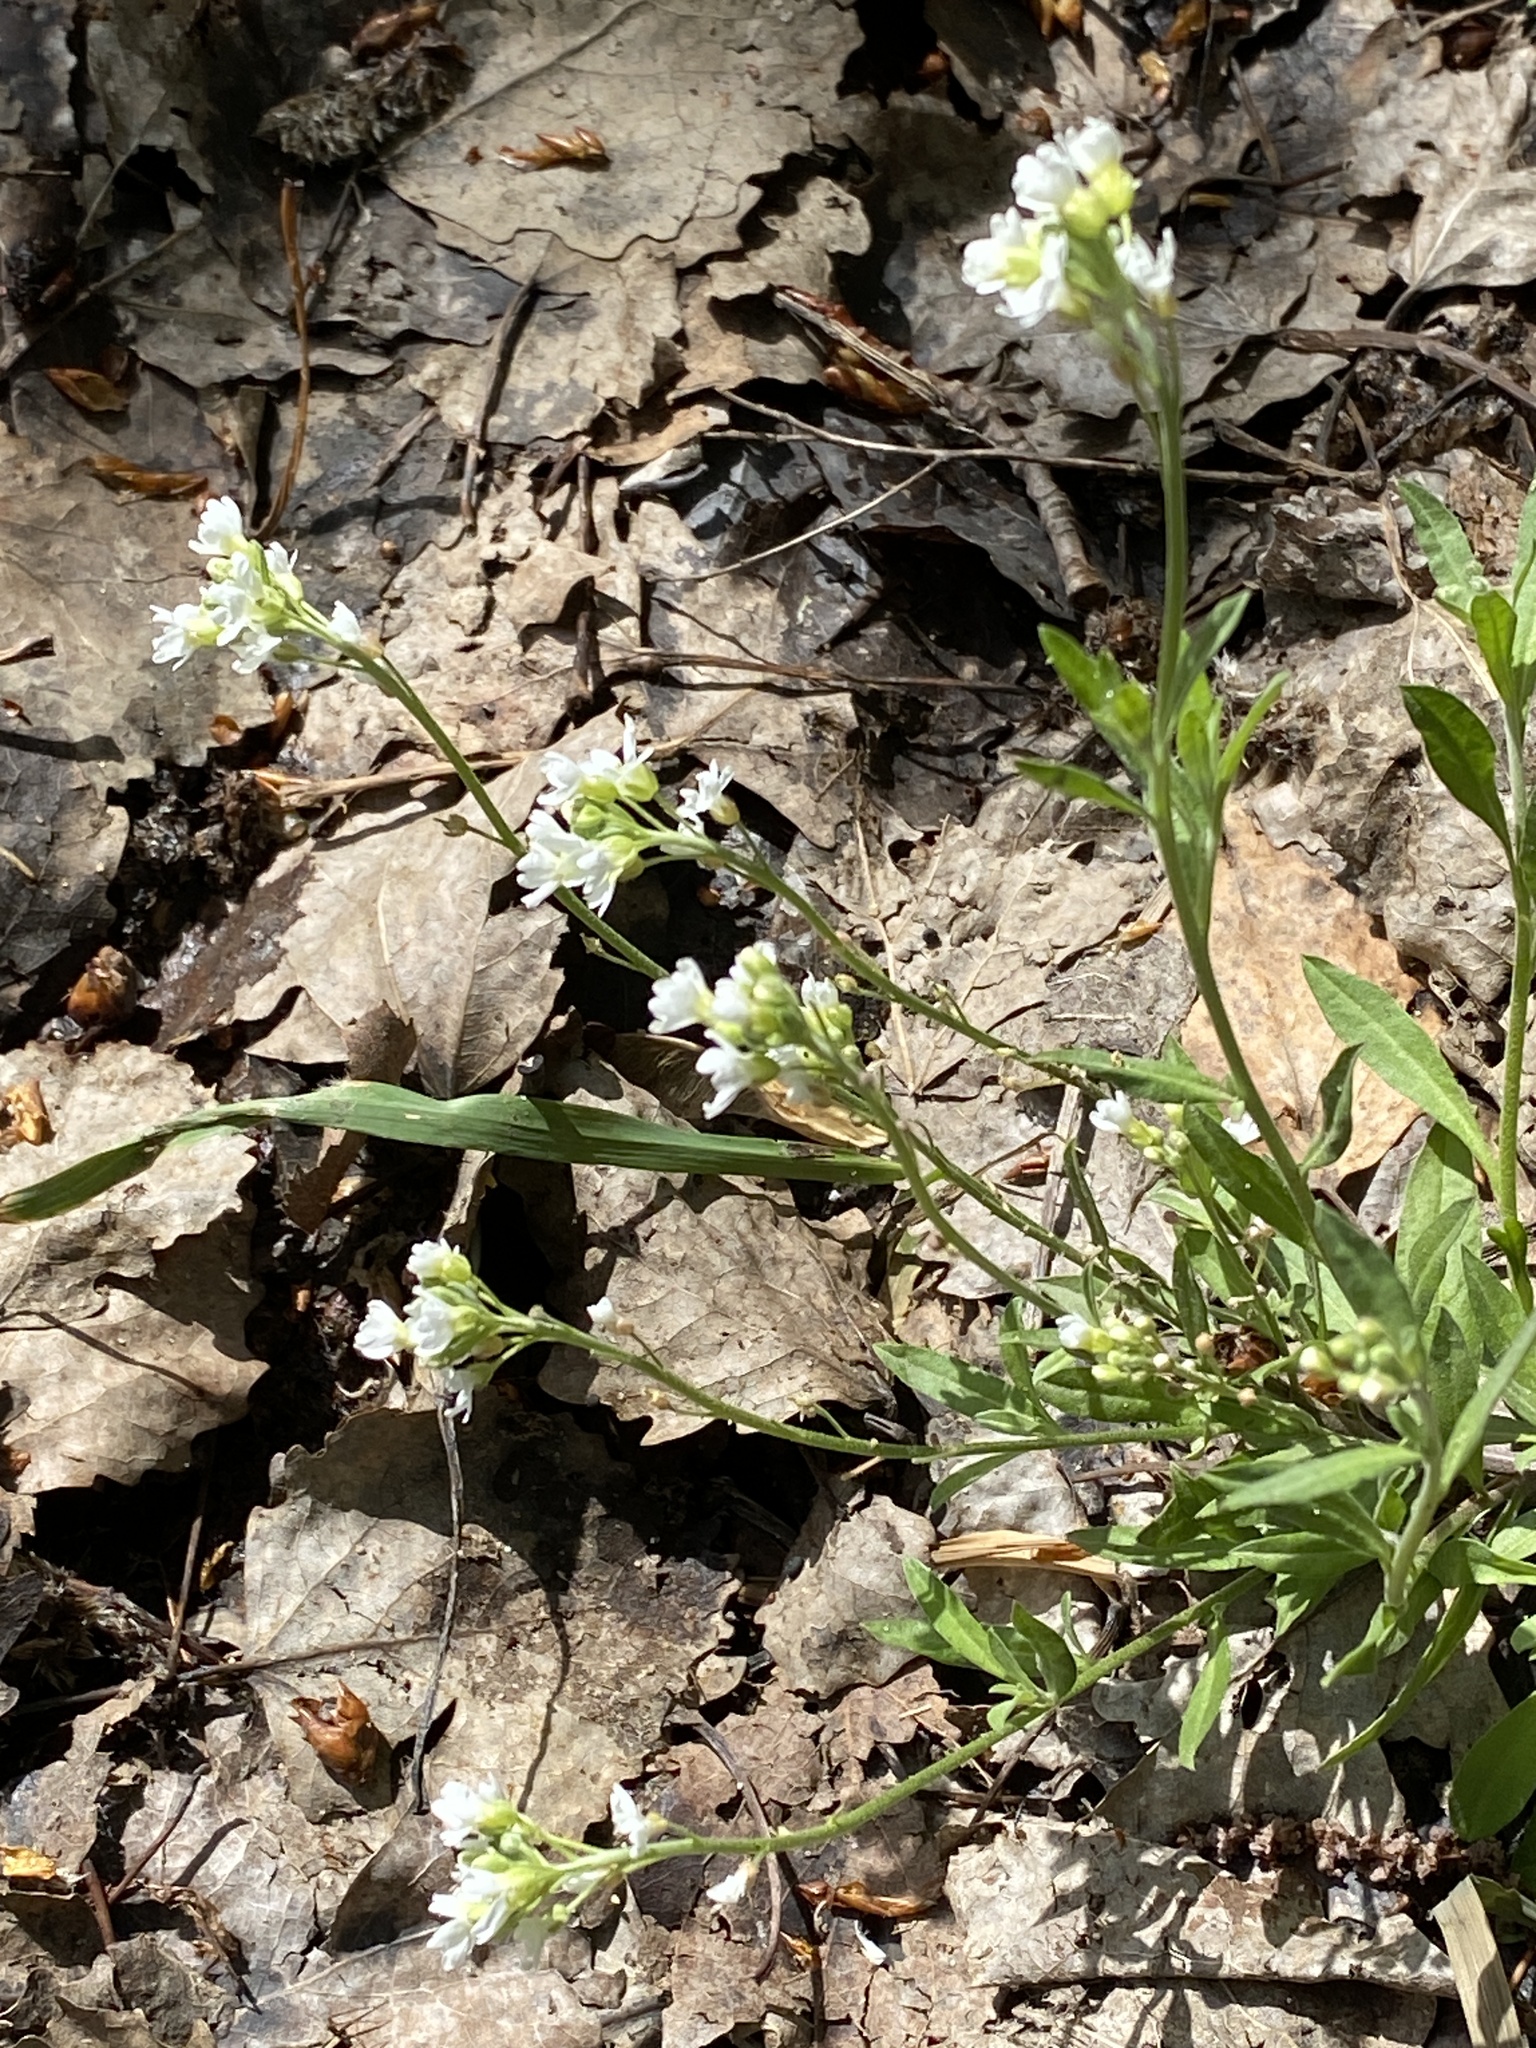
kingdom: Plantae
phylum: Tracheophyta
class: Magnoliopsida
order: Brassicales
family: Brassicaceae
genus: Berteroa
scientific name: Berteroa incana
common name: Hoary alison
